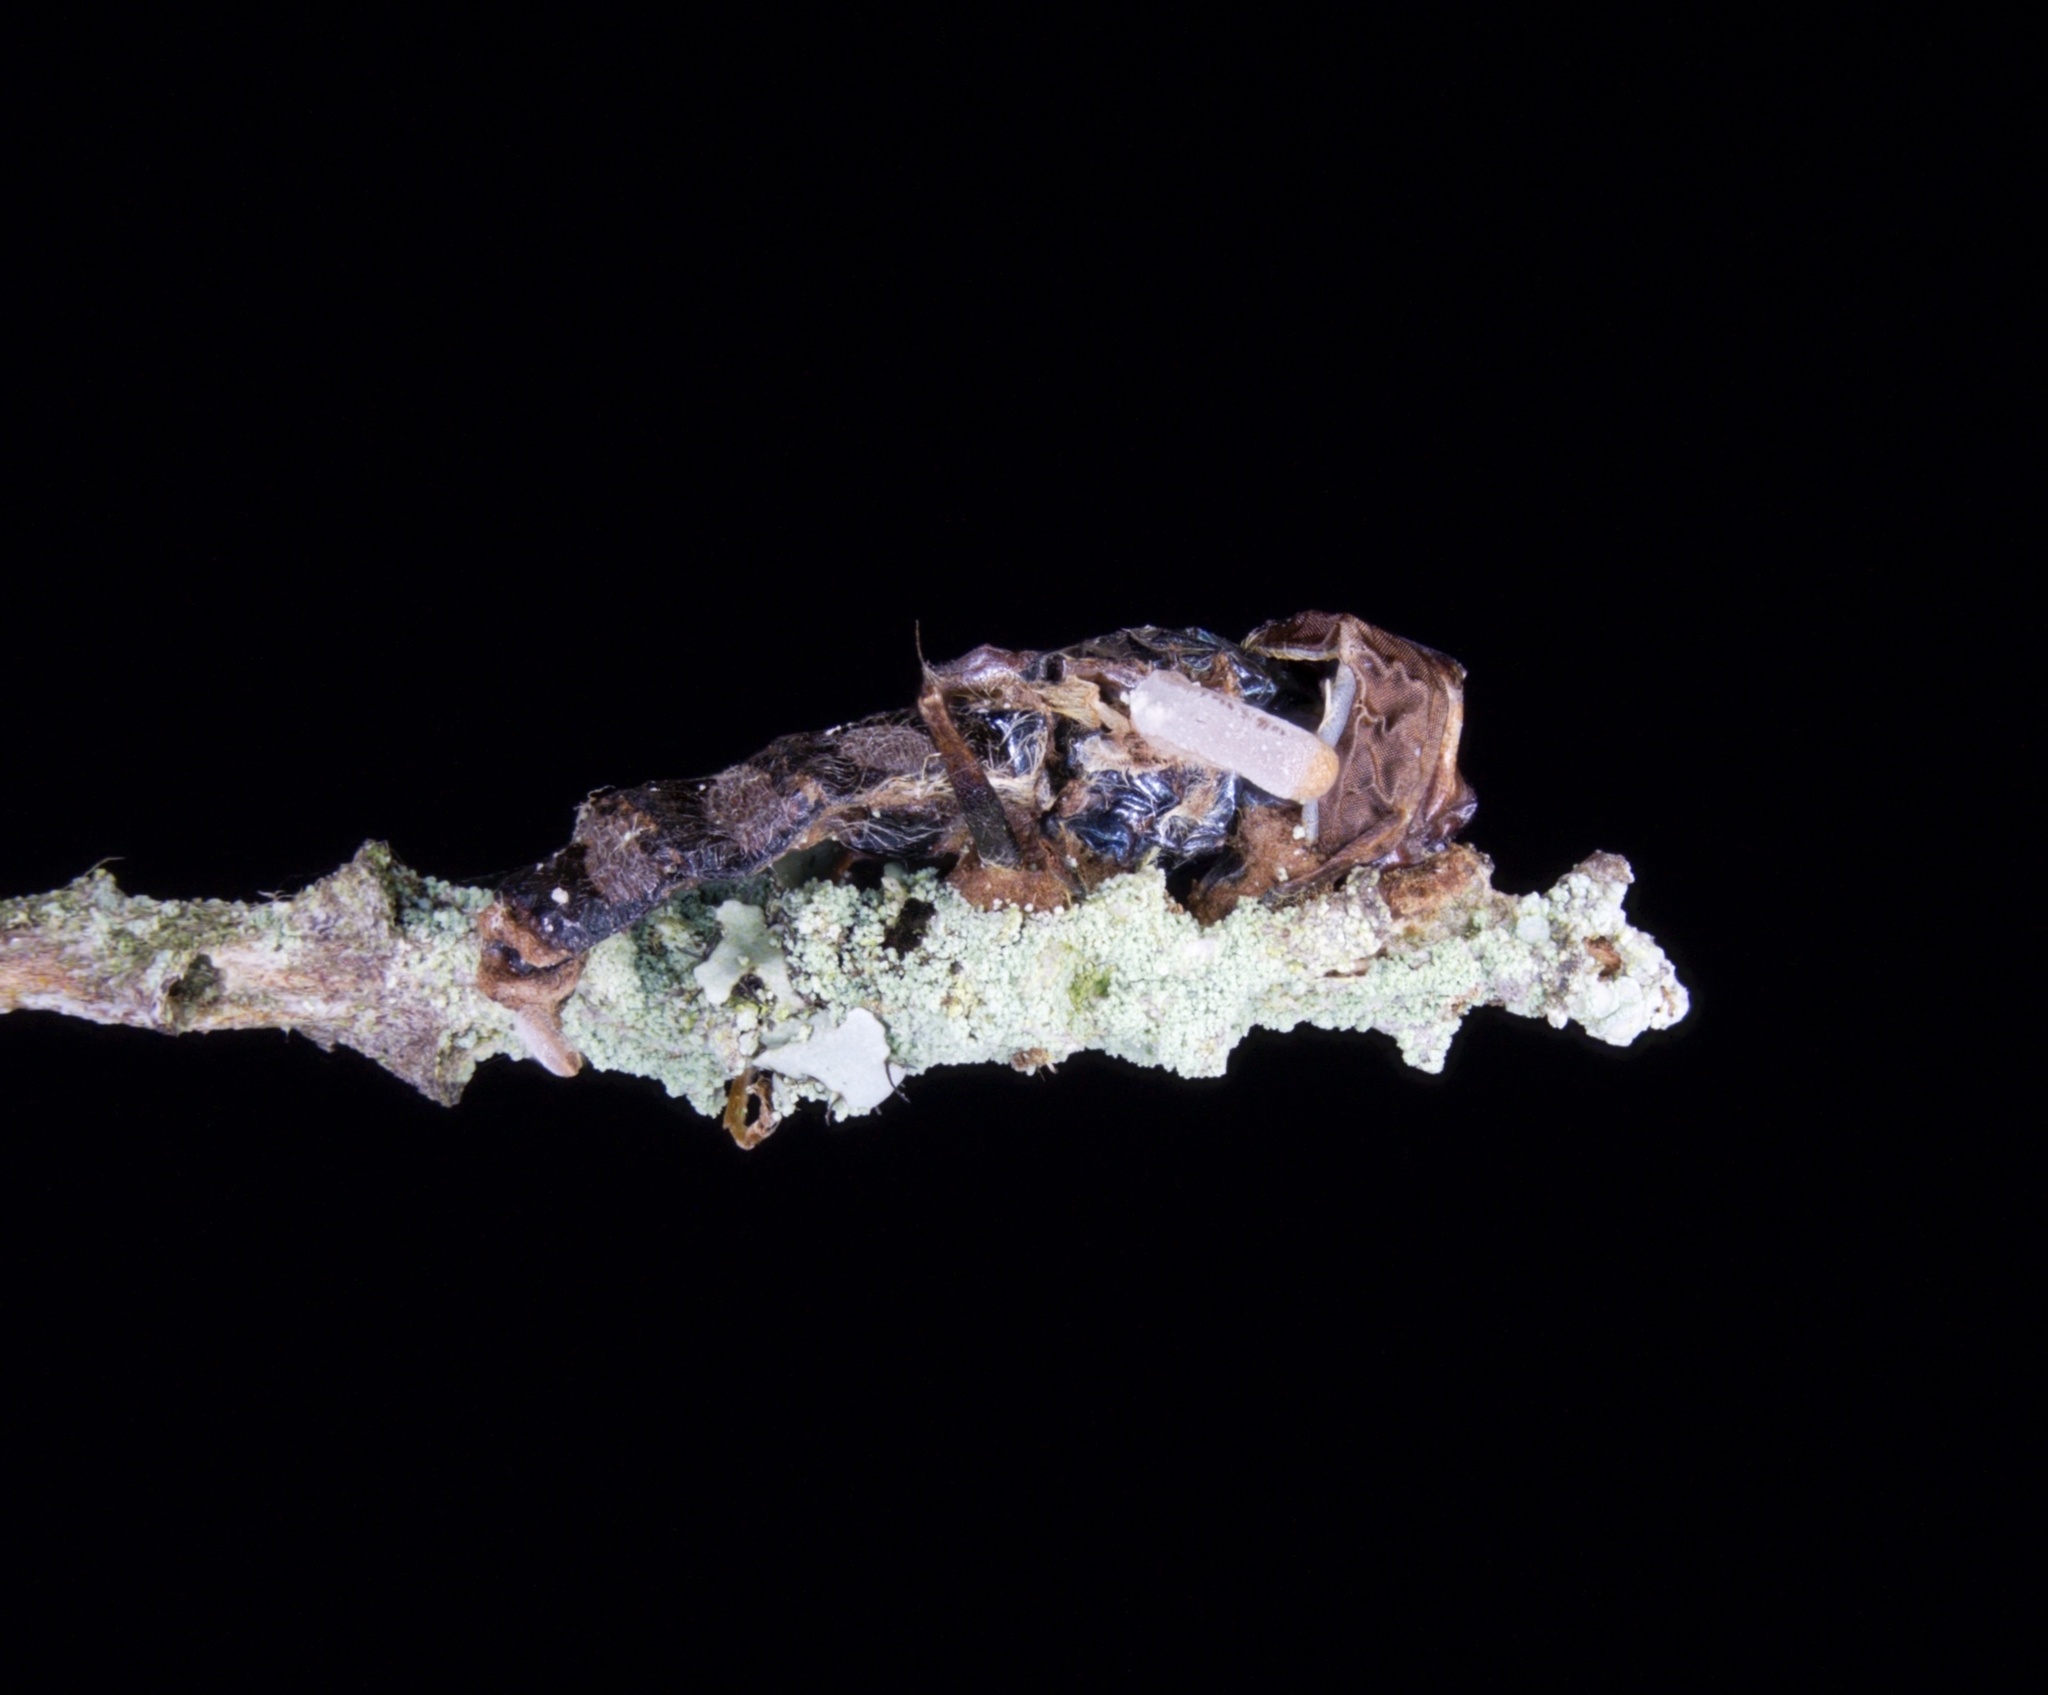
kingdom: Fungi
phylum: Ascomycota
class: Sordariomycetes
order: Hypocreales
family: Ophiocordycipitaceae
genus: Ophiocordyceps
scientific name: Ophiocordyceps dipterigena
